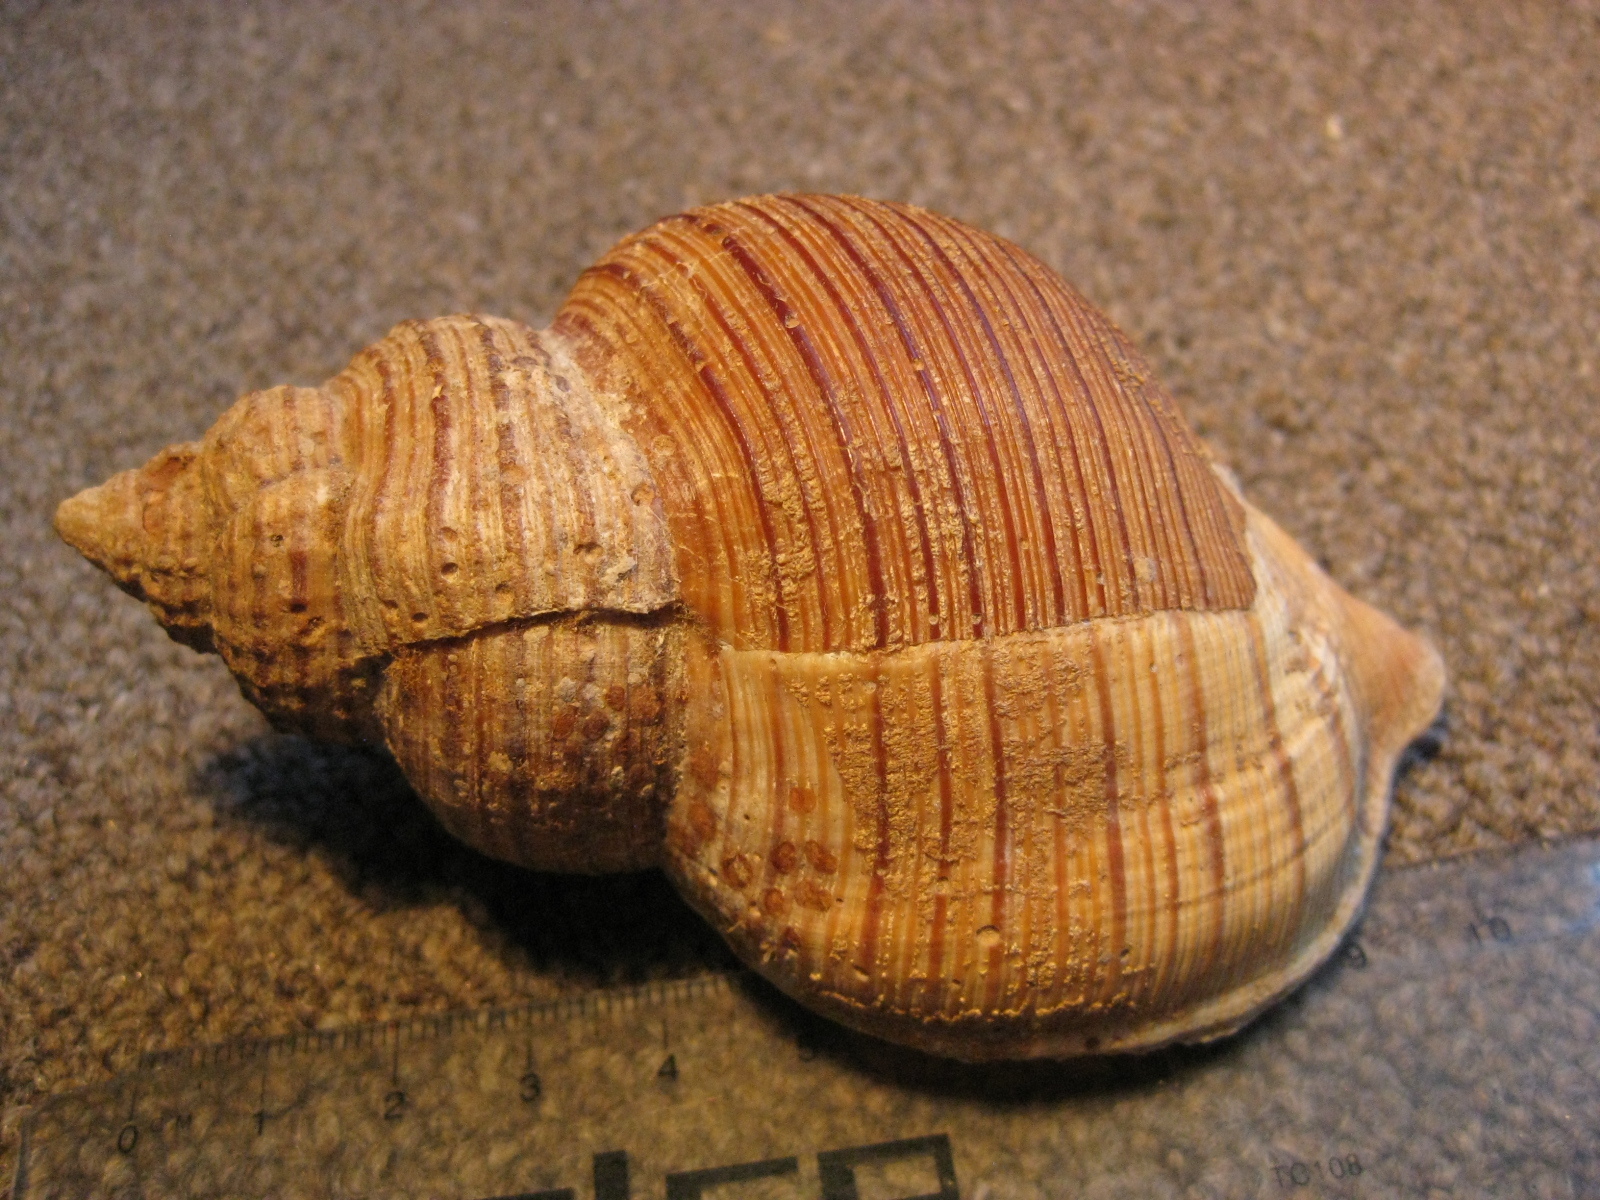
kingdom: Animalia
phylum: Mollusca
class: Gastropoda
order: Littorinimorpha
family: Cymatiidae
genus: Argobuccinum
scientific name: Argobuccinum pustulosum
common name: Pustular triton
